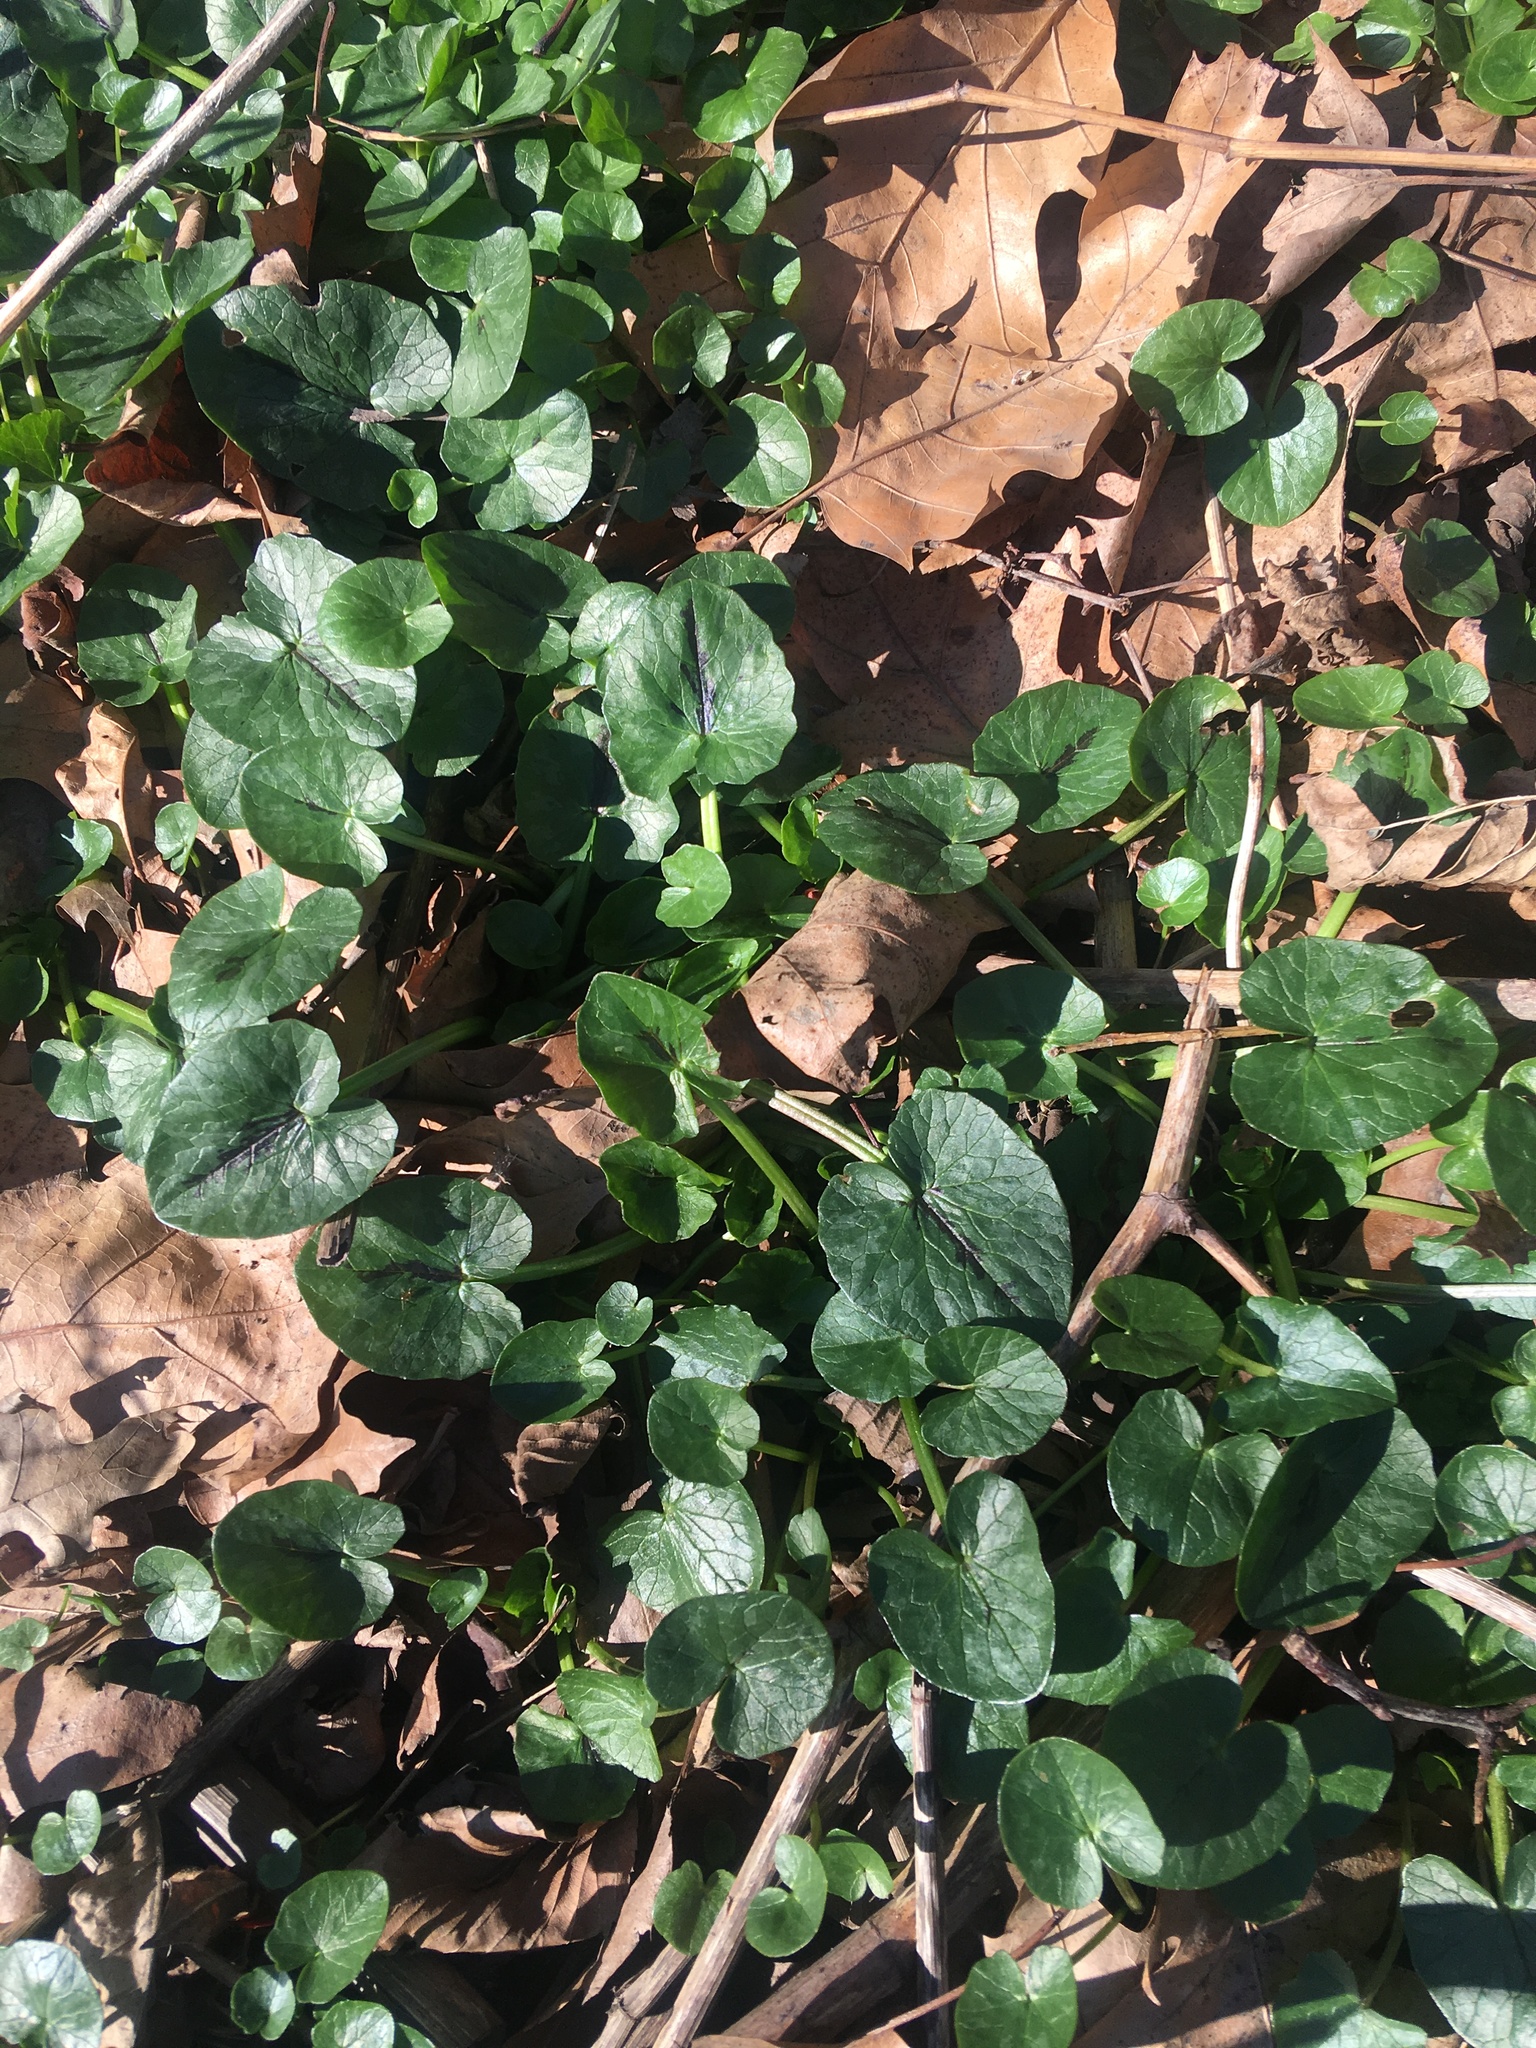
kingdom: Plantae
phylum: Tracheophyta
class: Magnoliopsida
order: Ranunculales
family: Ranunculaceae
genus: Ficaria
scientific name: Ficaria verna
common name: Lesser celandine
